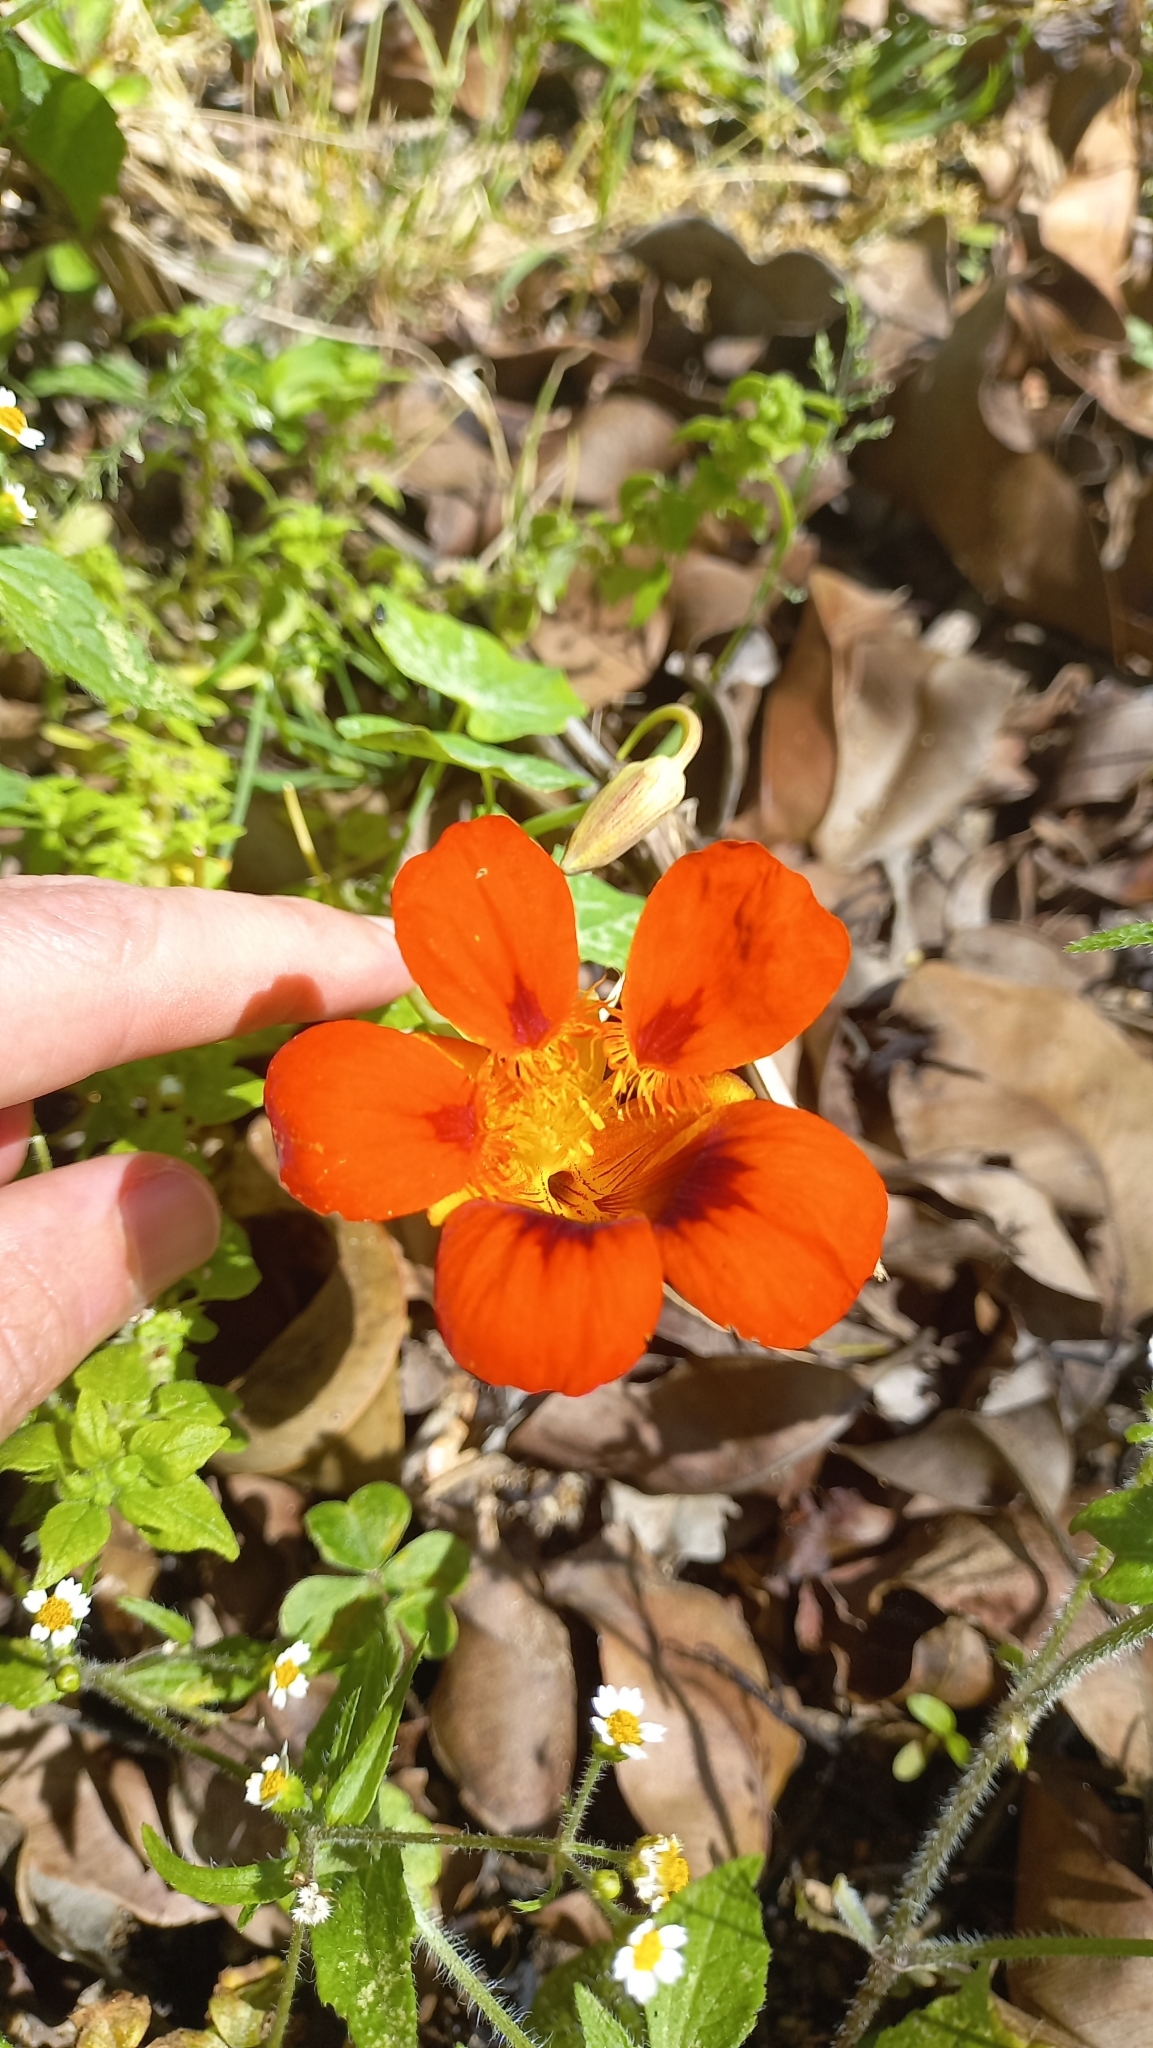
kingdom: Plantae
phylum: Tracheophyta
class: Magnoliopsida
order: Brassicales
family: Tropaeolaceae
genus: Tropaeolum
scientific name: Tropaeolum majus
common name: Nasturtium
